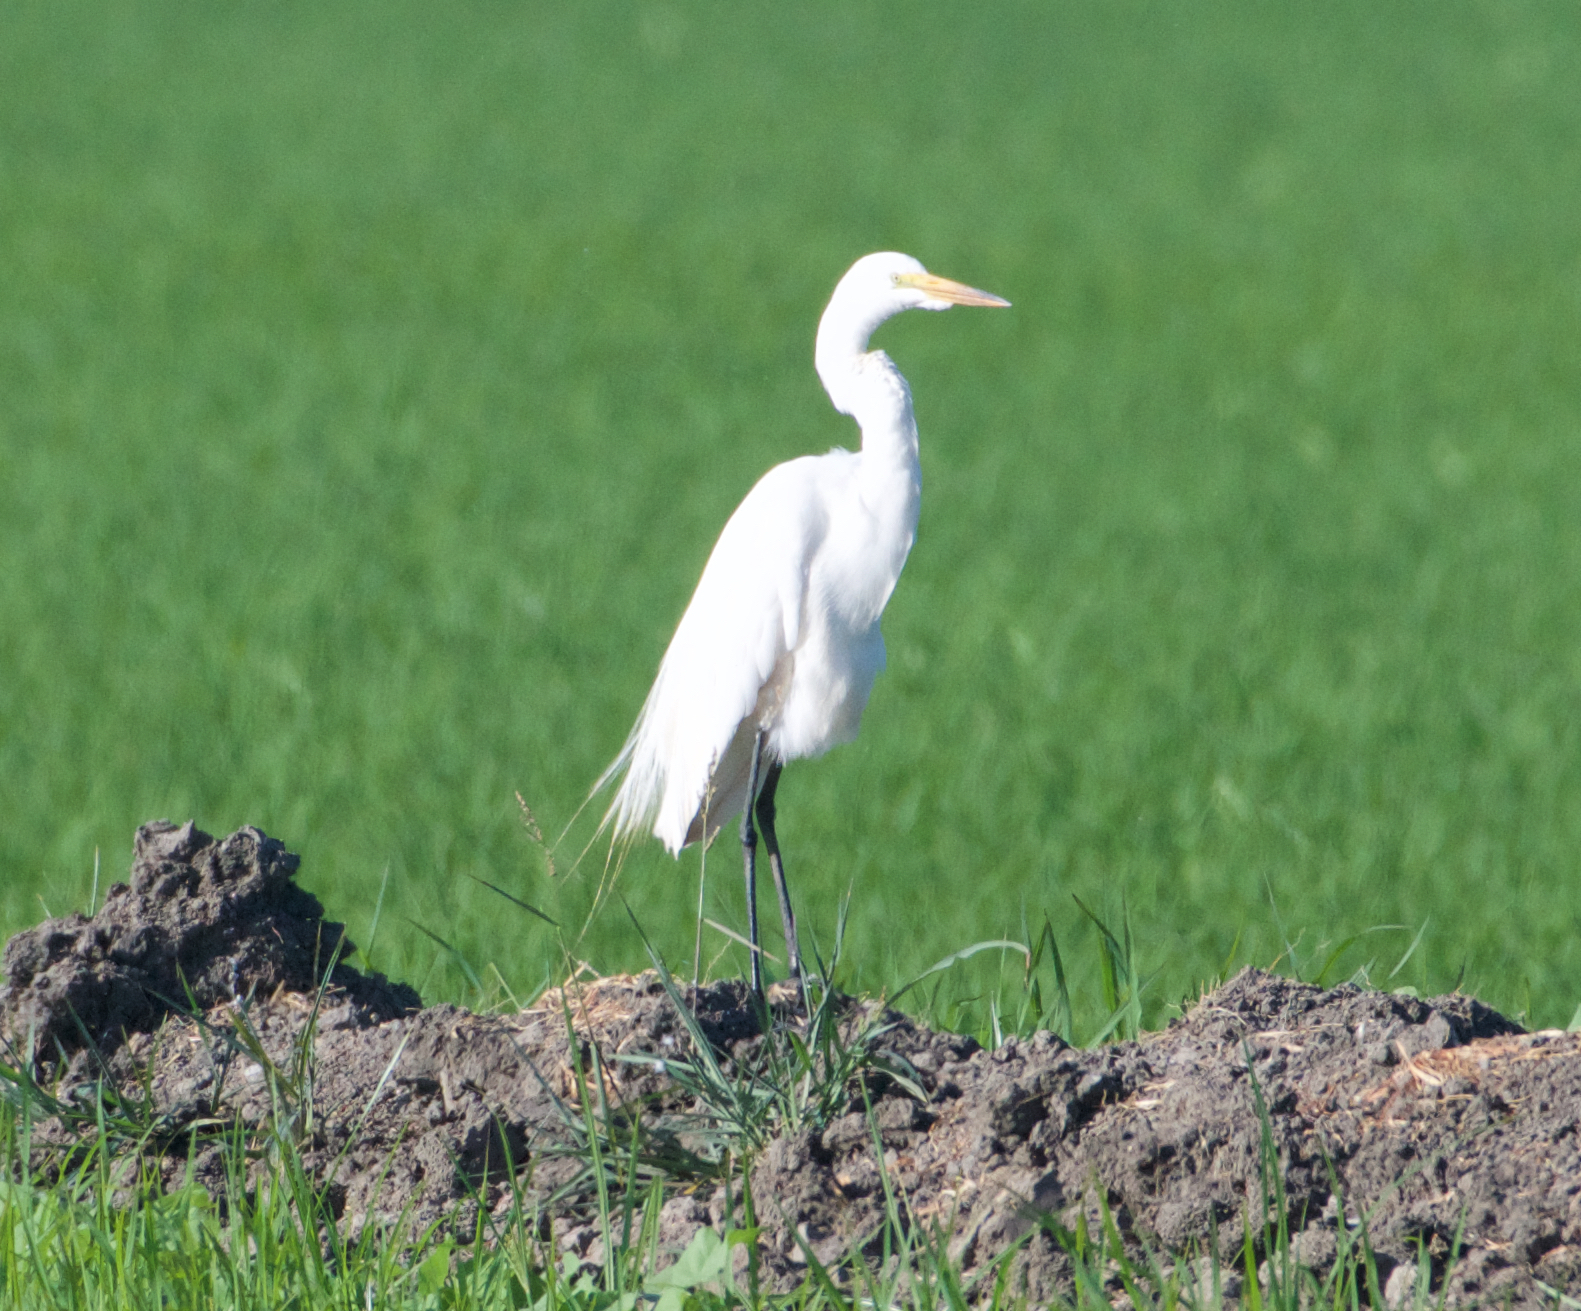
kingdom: Animalia
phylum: Chordata
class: Aves
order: Pelecaniformes
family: Ardeidae
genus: Ardea
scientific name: Ardea alba
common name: Great egret
